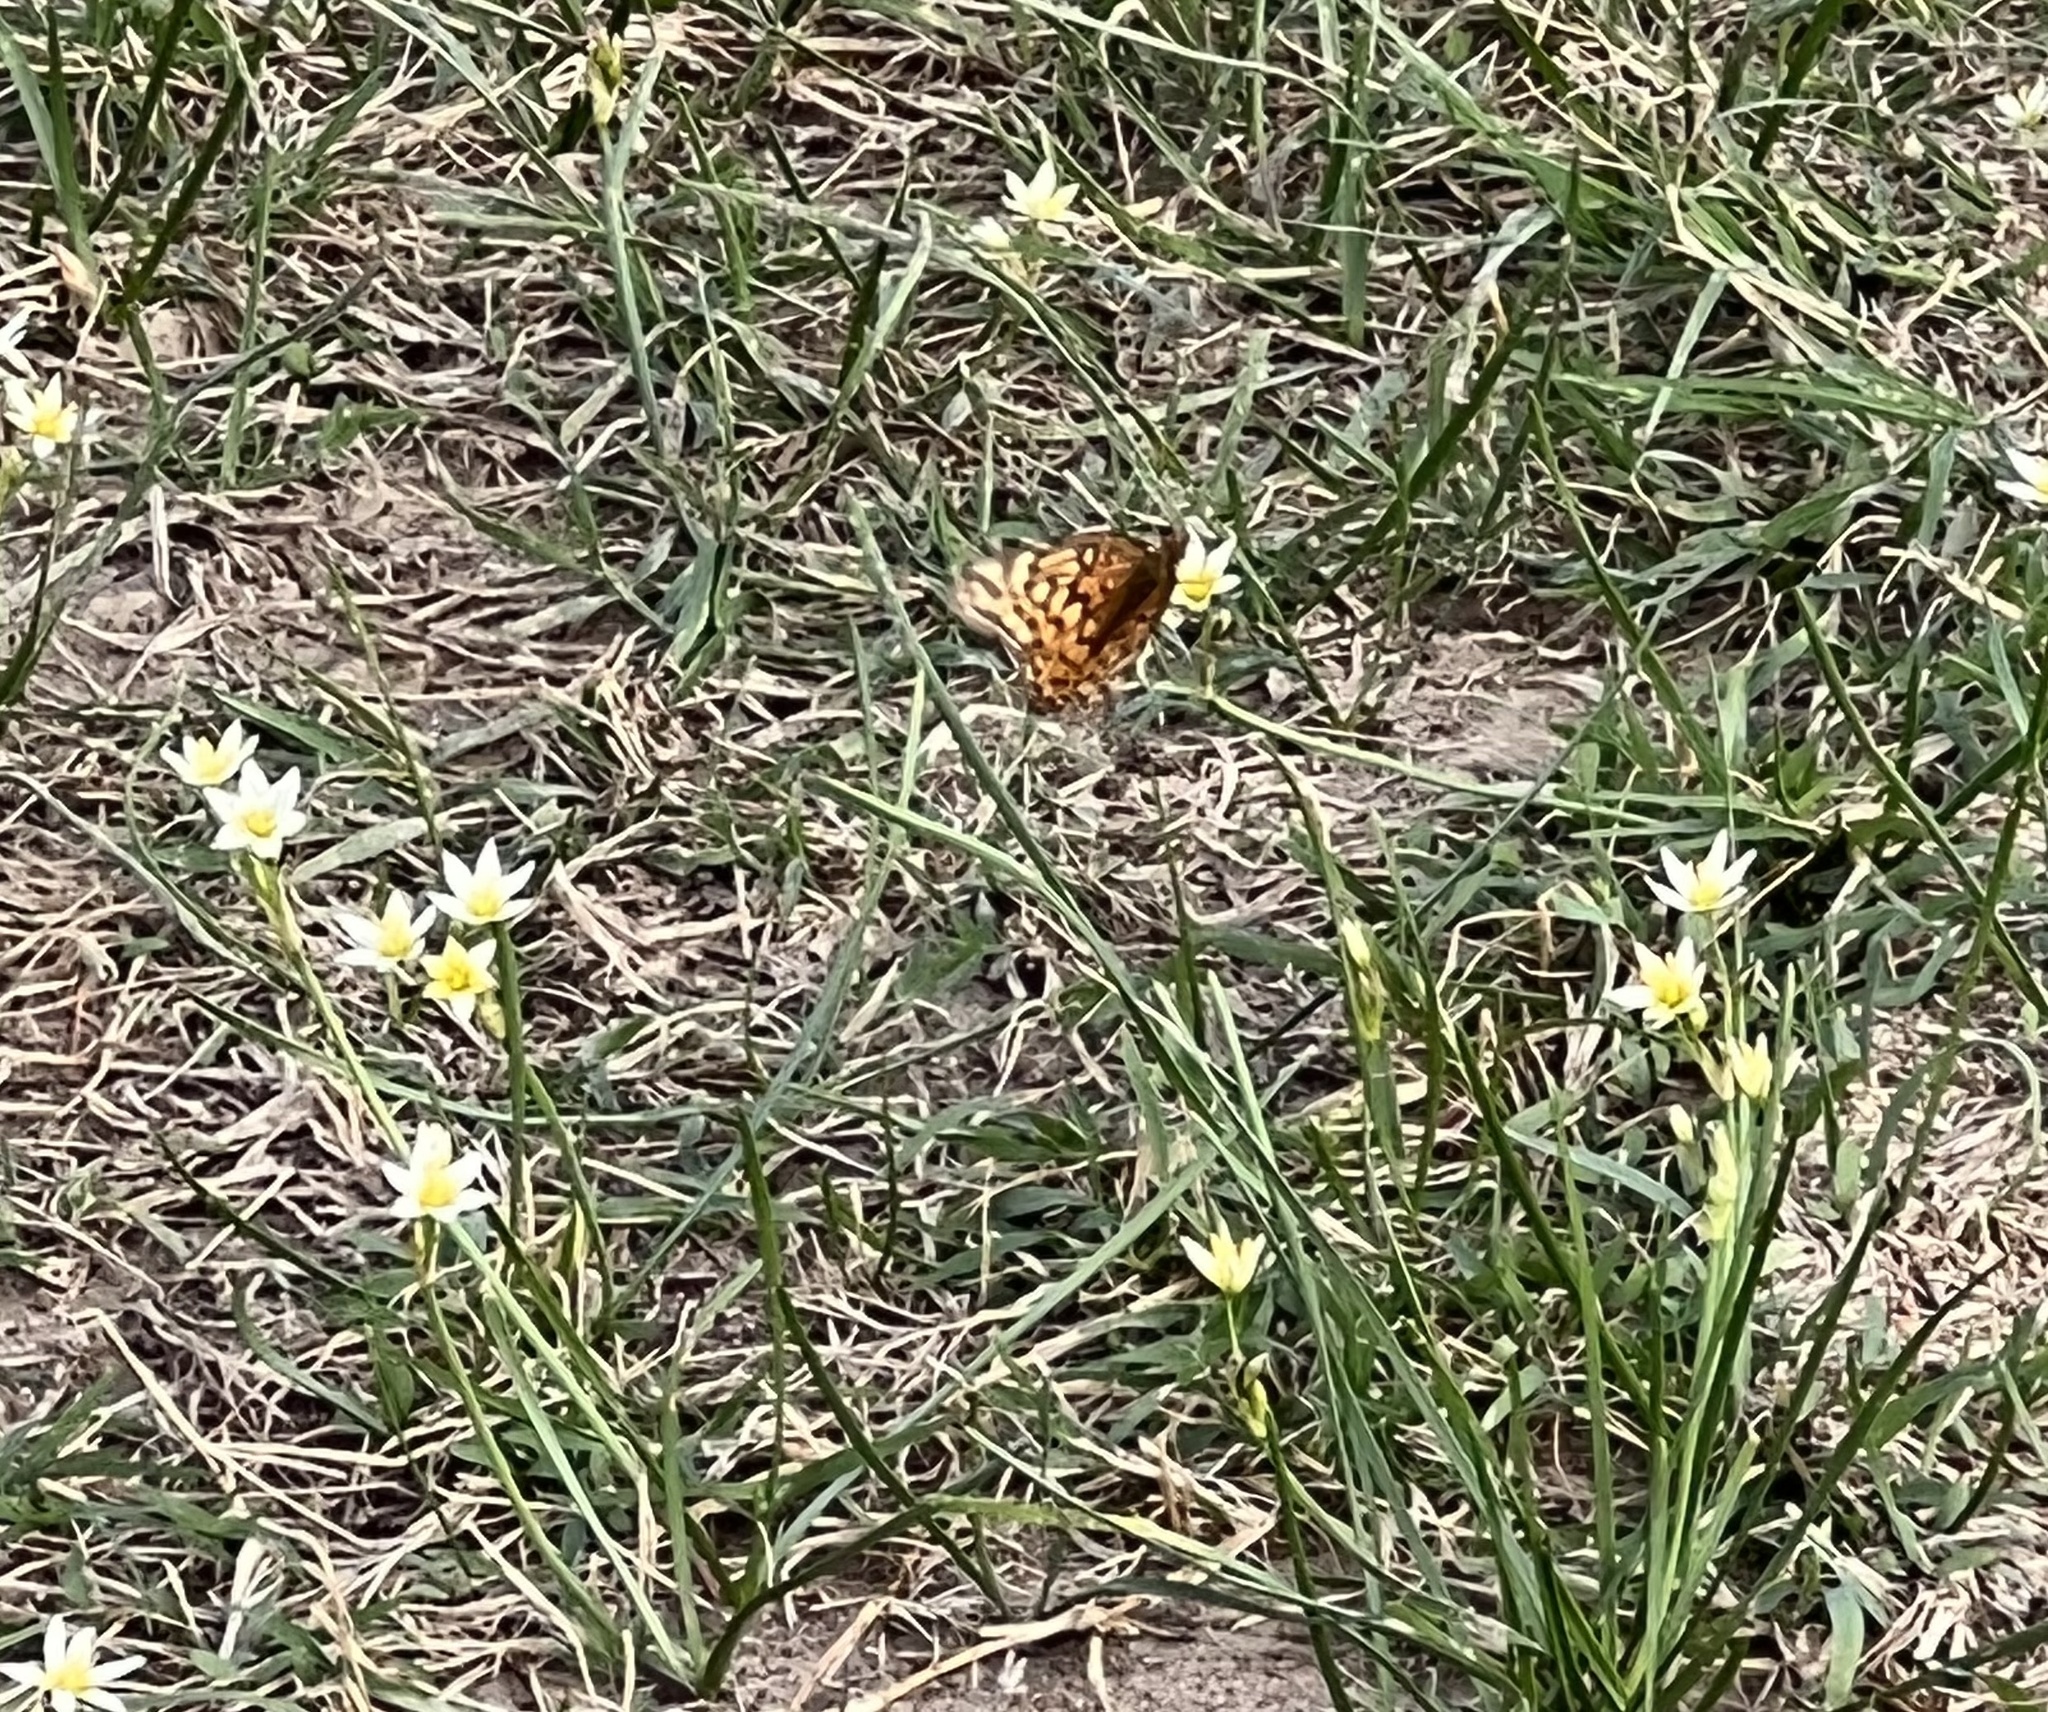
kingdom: Animalia
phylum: Arthropoda
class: Insecta
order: Lepidoptera
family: Nymphalidae
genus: Euptoieta
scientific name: Euptoieta claudia
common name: Variegated fritillary
